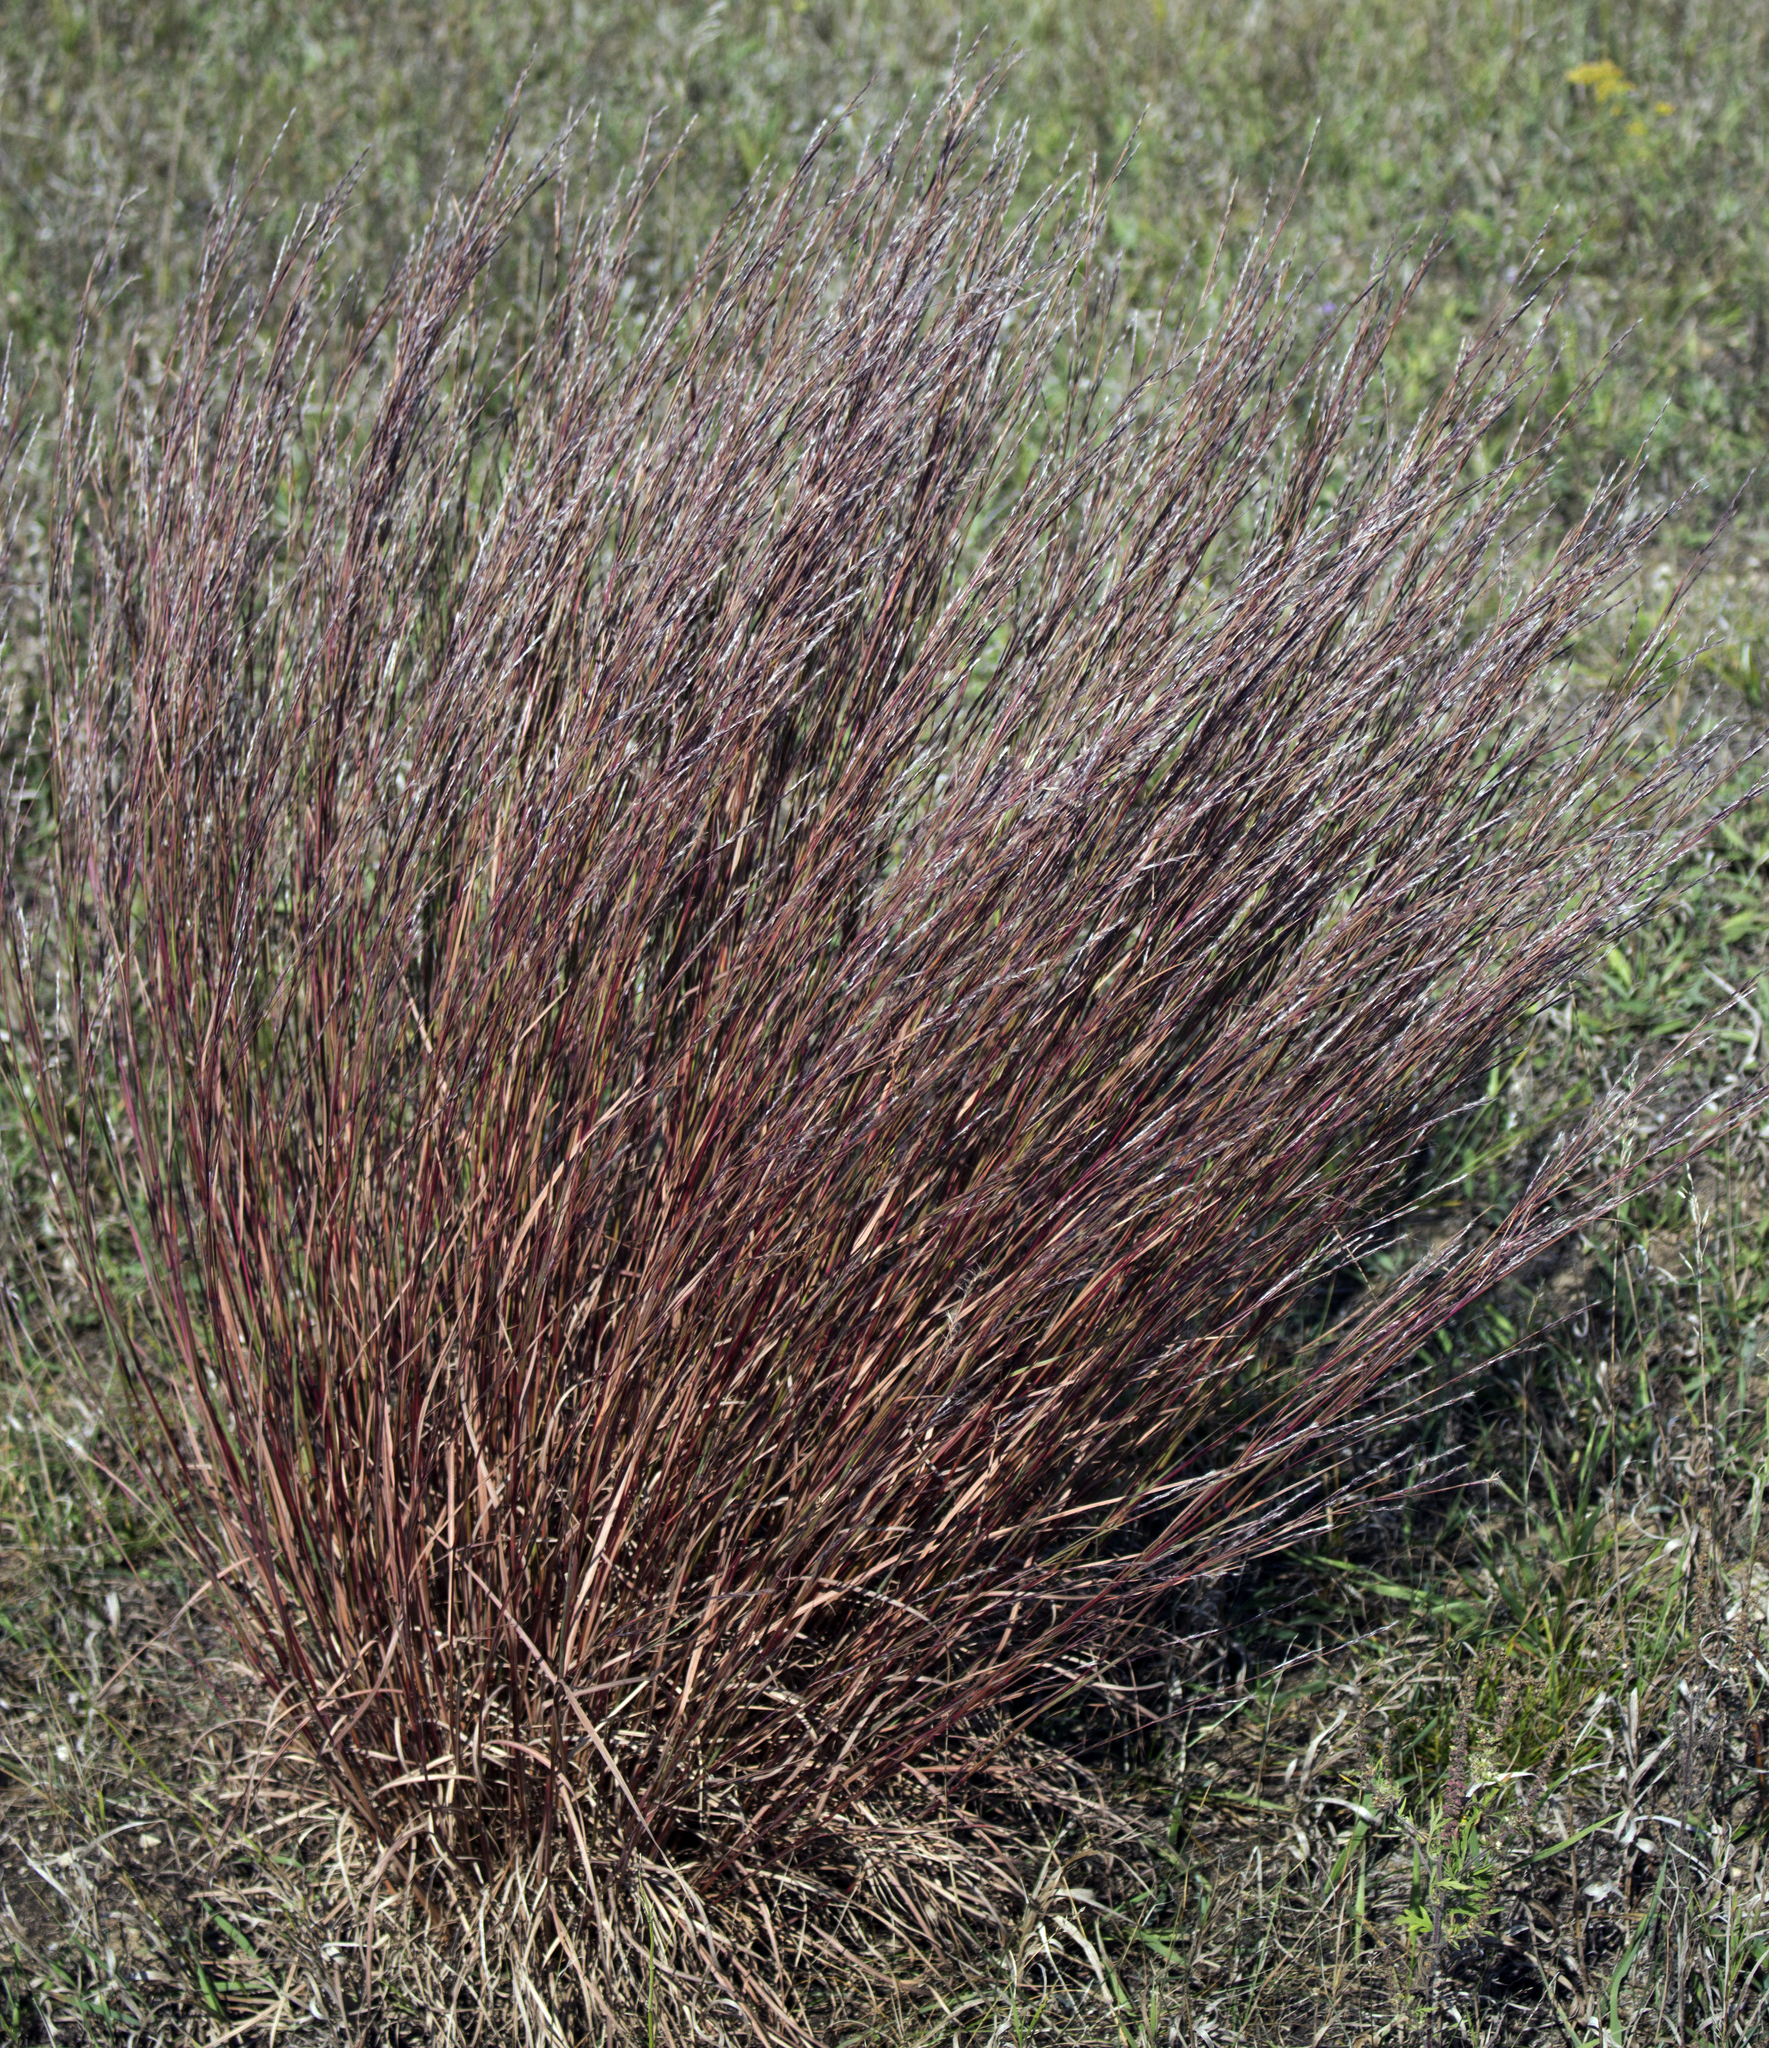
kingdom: Plantae
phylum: Tracheophyta
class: Liliopsida
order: Poales
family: Poaceae
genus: Schizachyrium
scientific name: Schizachyrium scoparium
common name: Little bluestem
